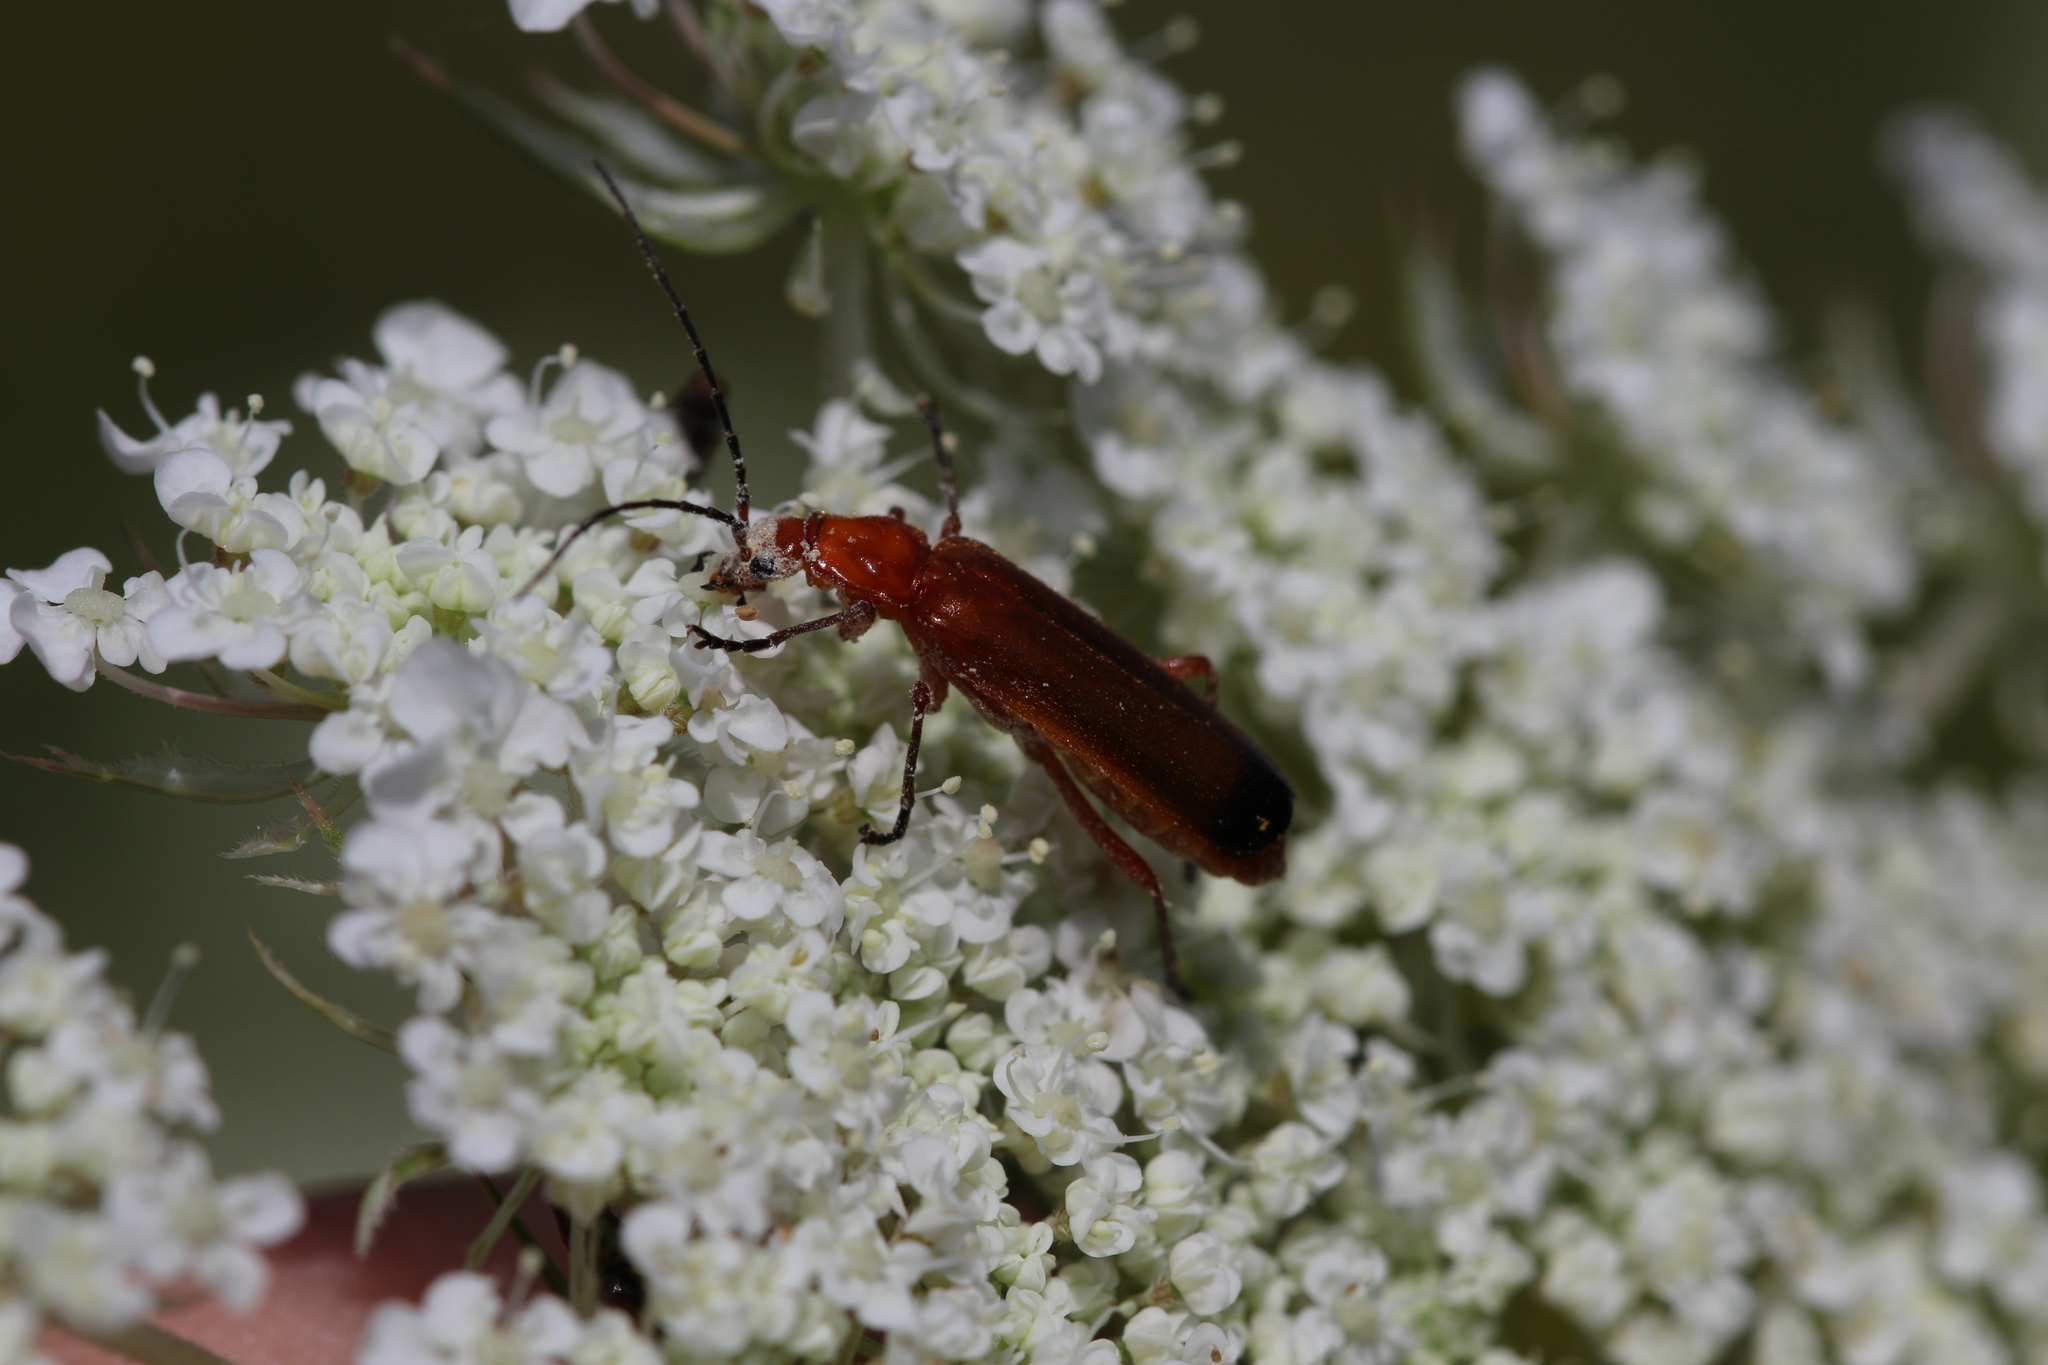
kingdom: Animalia
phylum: Arthropoda
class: Insecta
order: Coleoptera
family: Cantharidae
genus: Rhagonycha
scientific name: Rhagonycha fulva
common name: Common red soldier beetle
